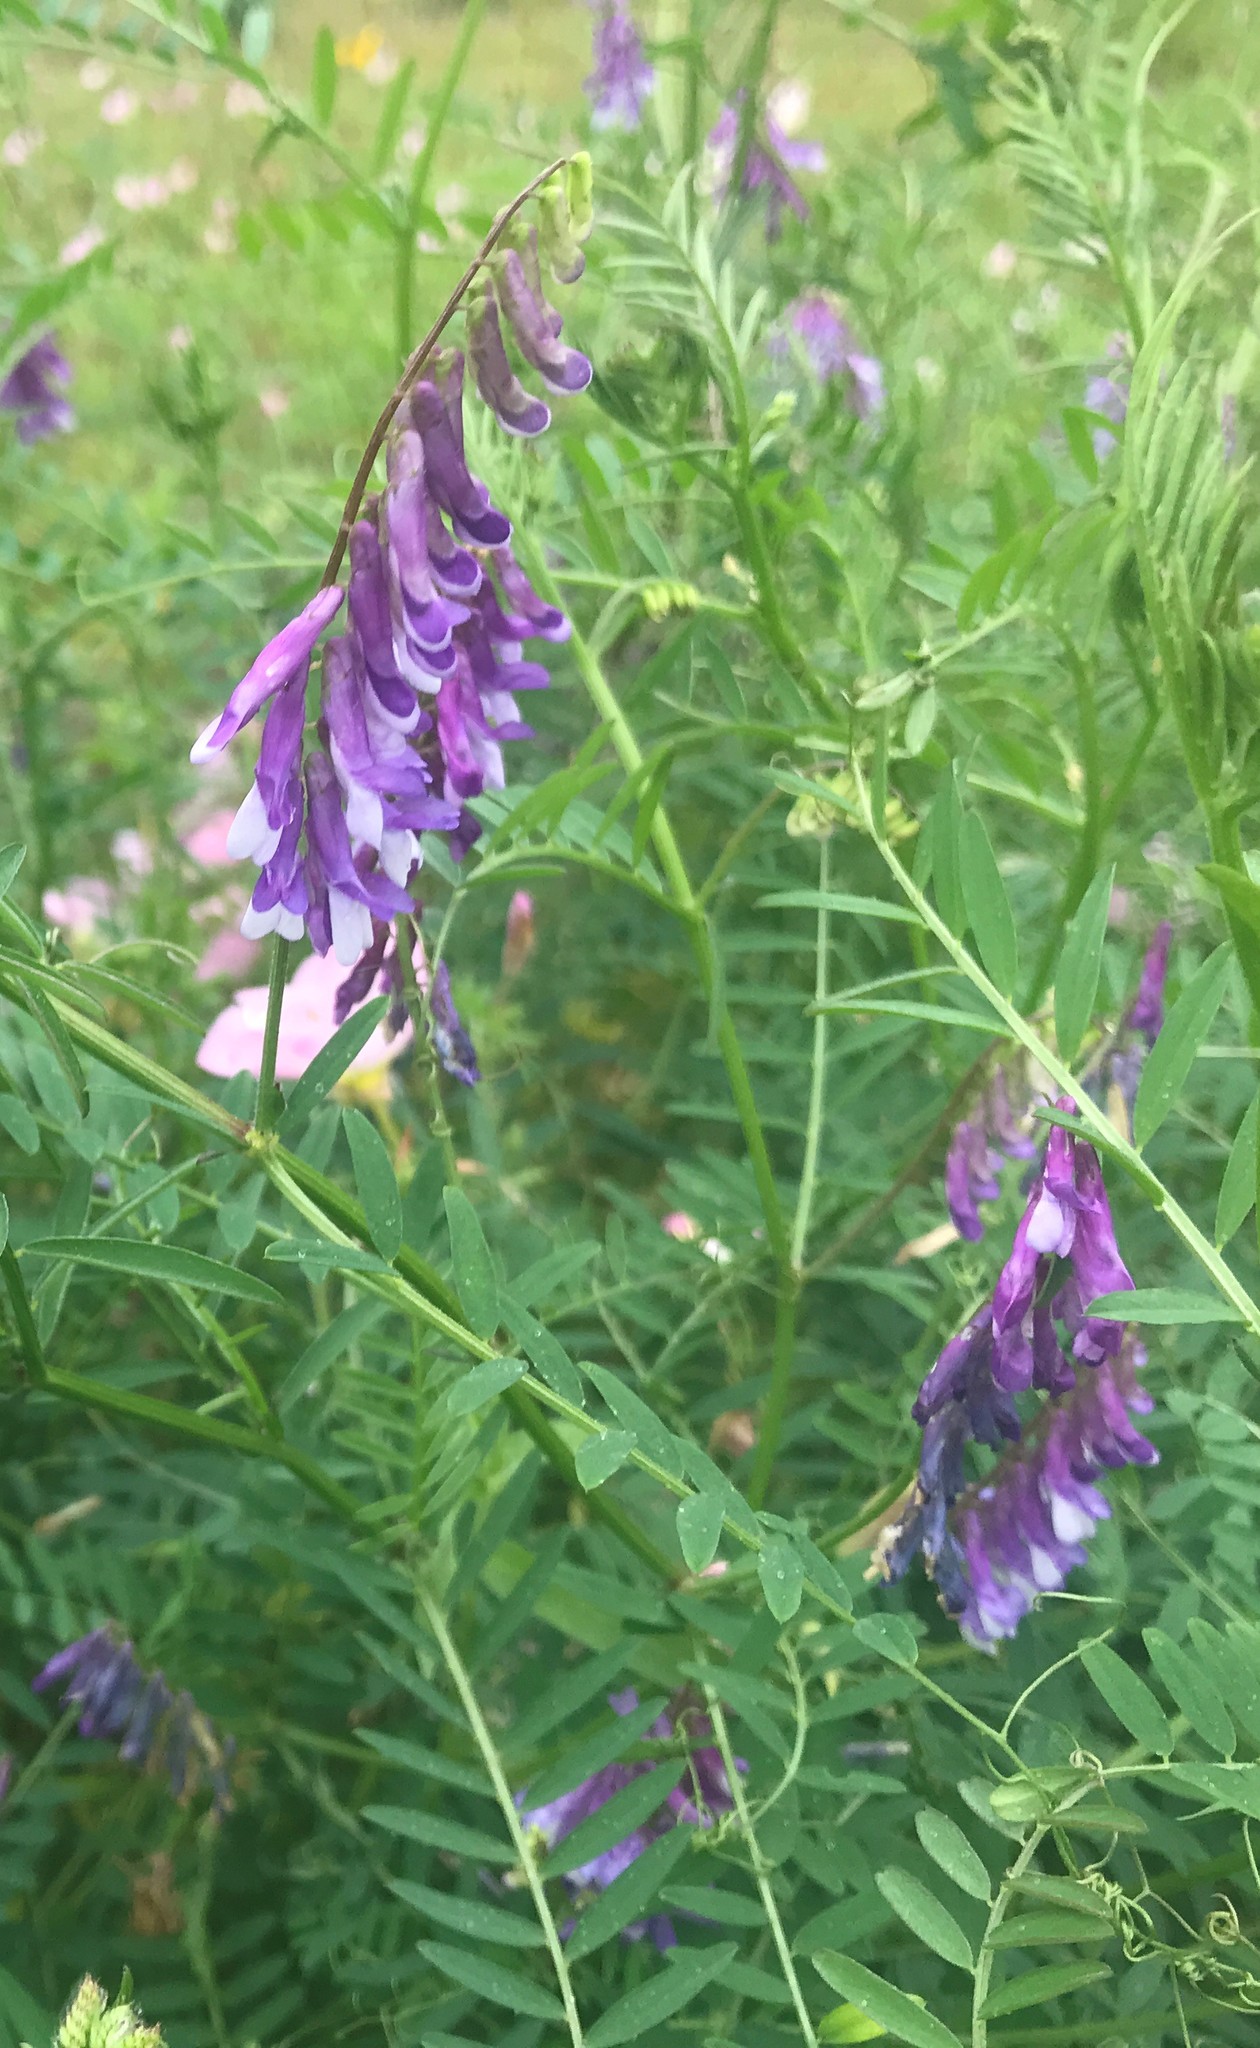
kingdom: Plantae
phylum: Tracheophyta
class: Magnoliopsida
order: Fabales
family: Fabaceae
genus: Vicia
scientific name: Vicia villosa
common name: Fodder vetch
